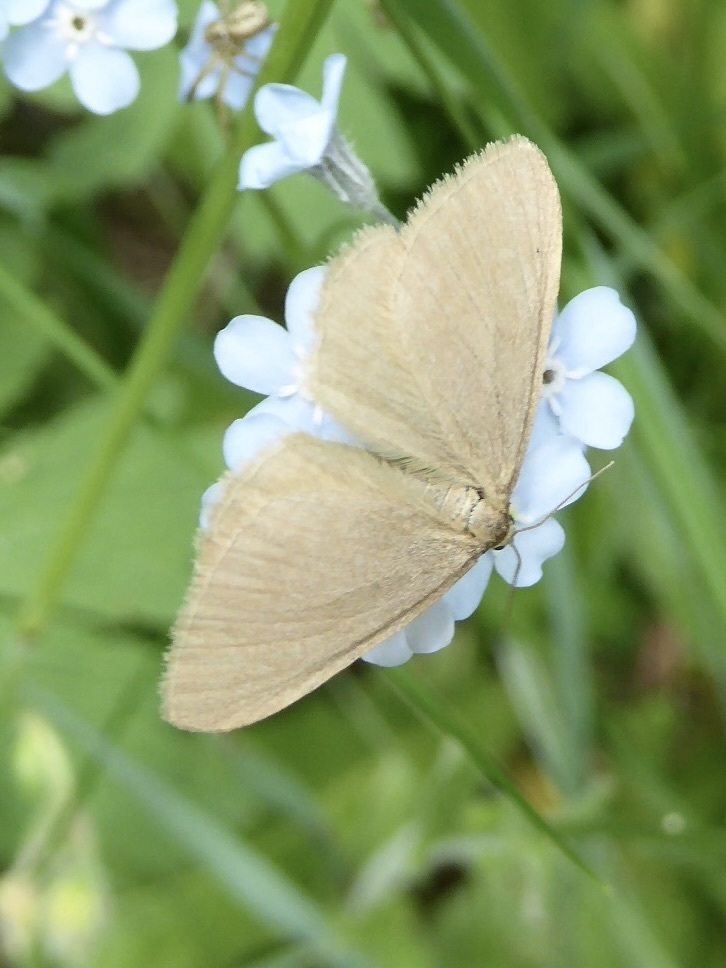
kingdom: Animalia
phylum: Arthropoda
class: Insecta
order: Lepidoptera
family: Geometridae
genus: Minoa
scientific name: Minoa murinata
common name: Drab looper
